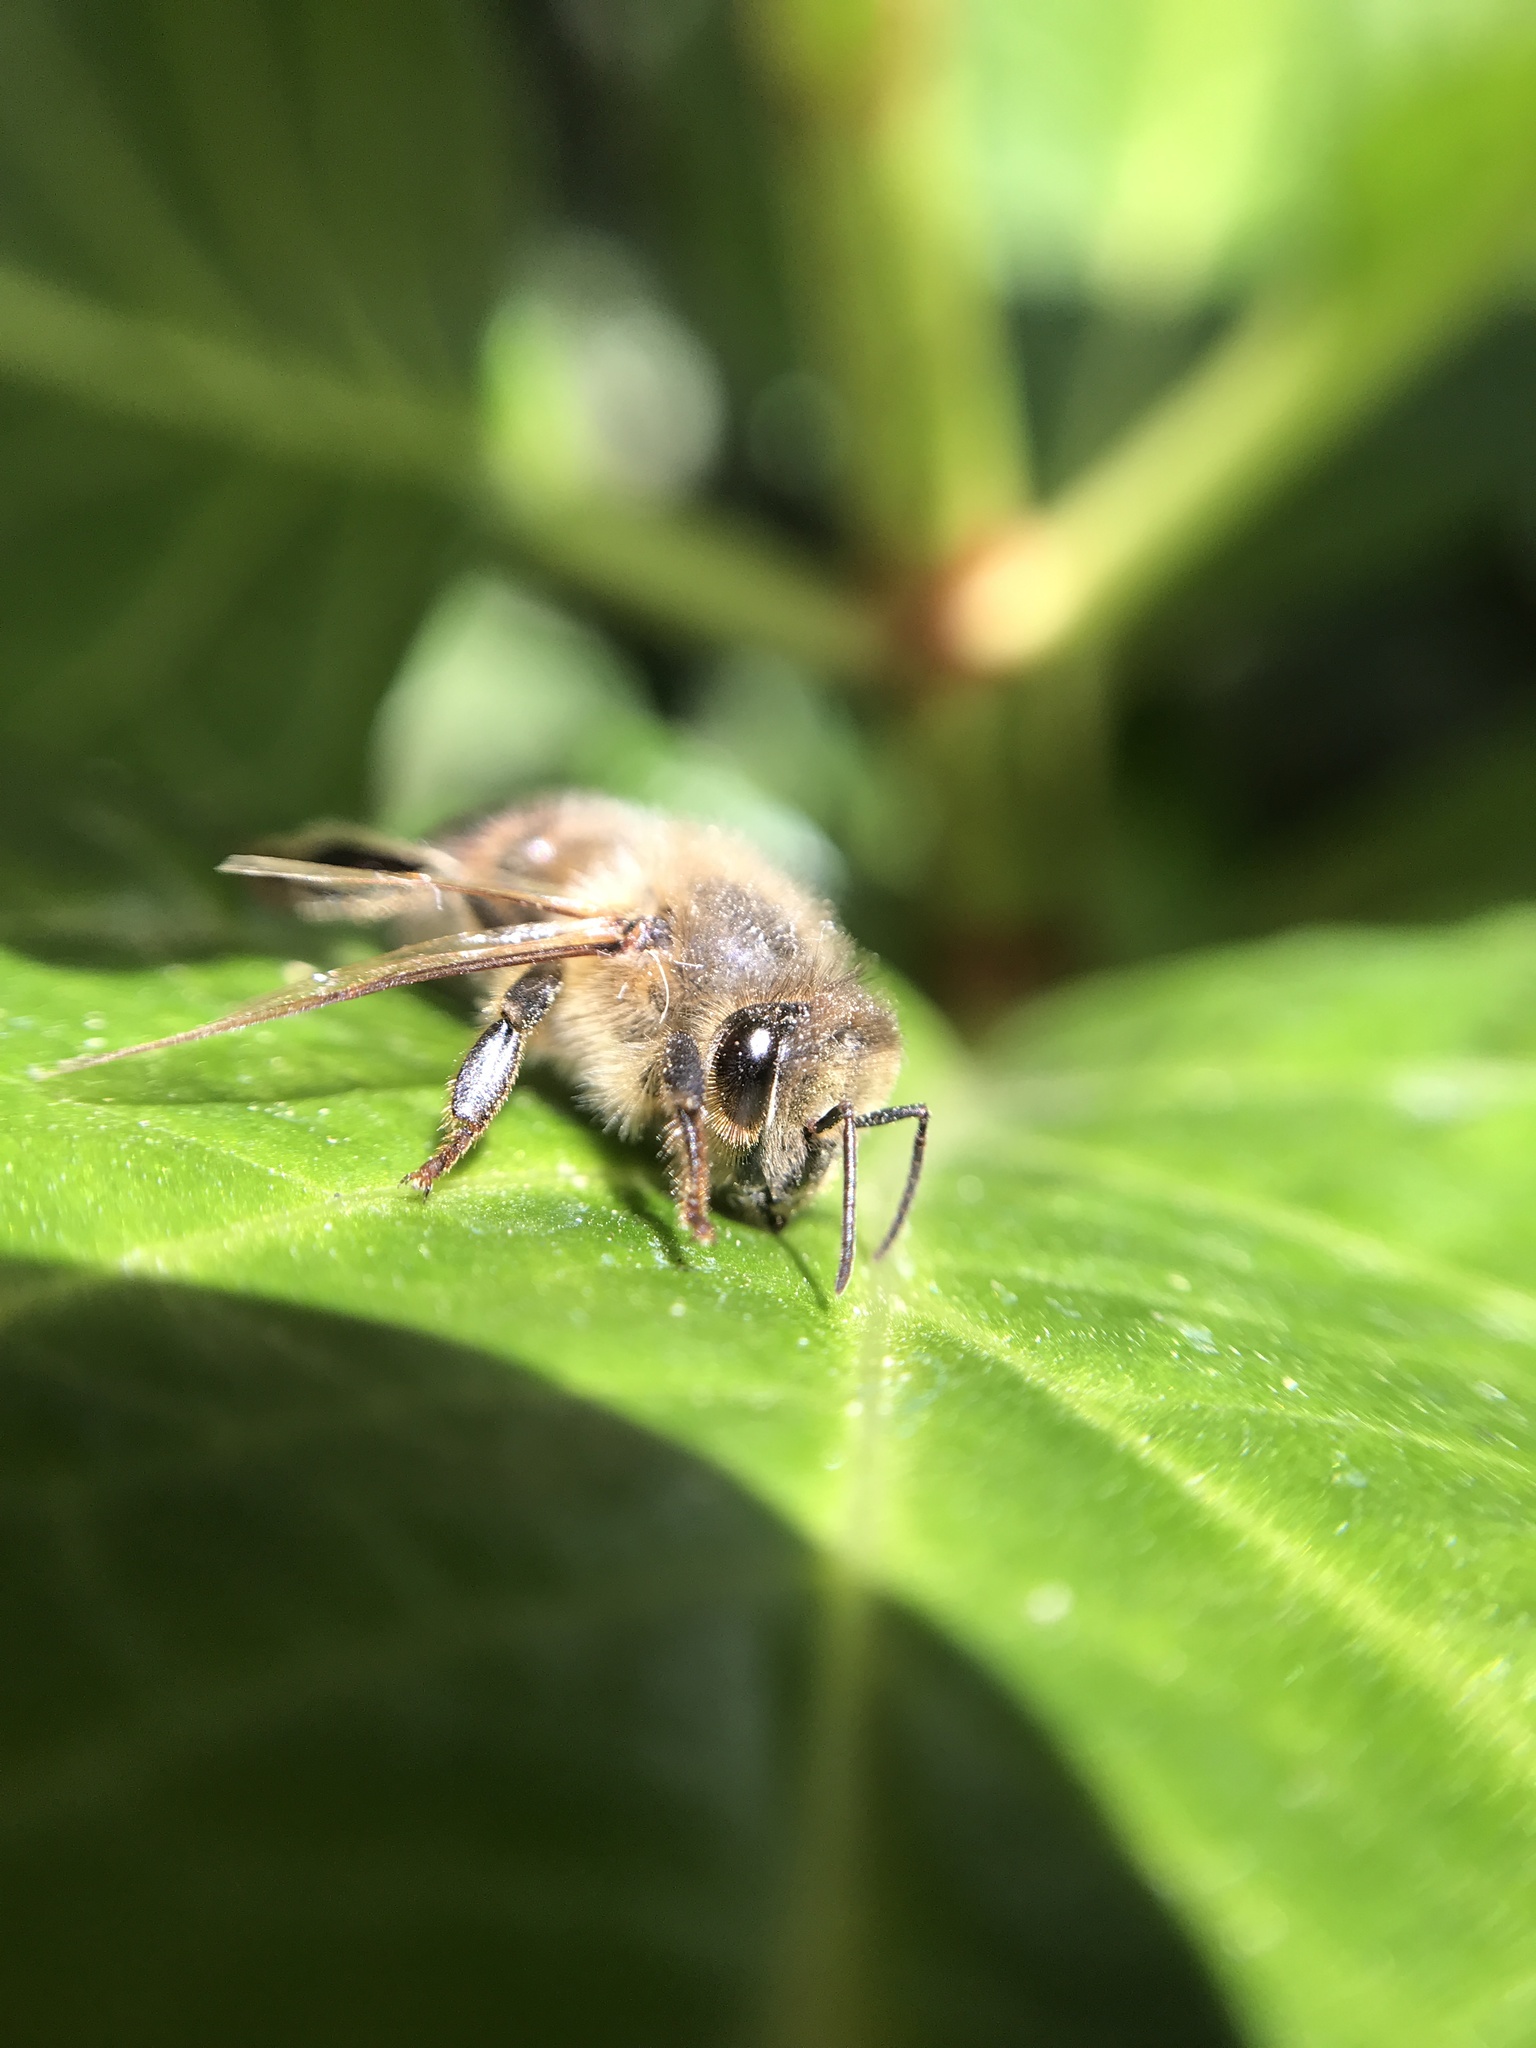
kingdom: Animalia
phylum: Arthropoda
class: Insecta
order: Hymenoptera
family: Apidae
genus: Apis
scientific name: Apis mellifera
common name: Honey bee
